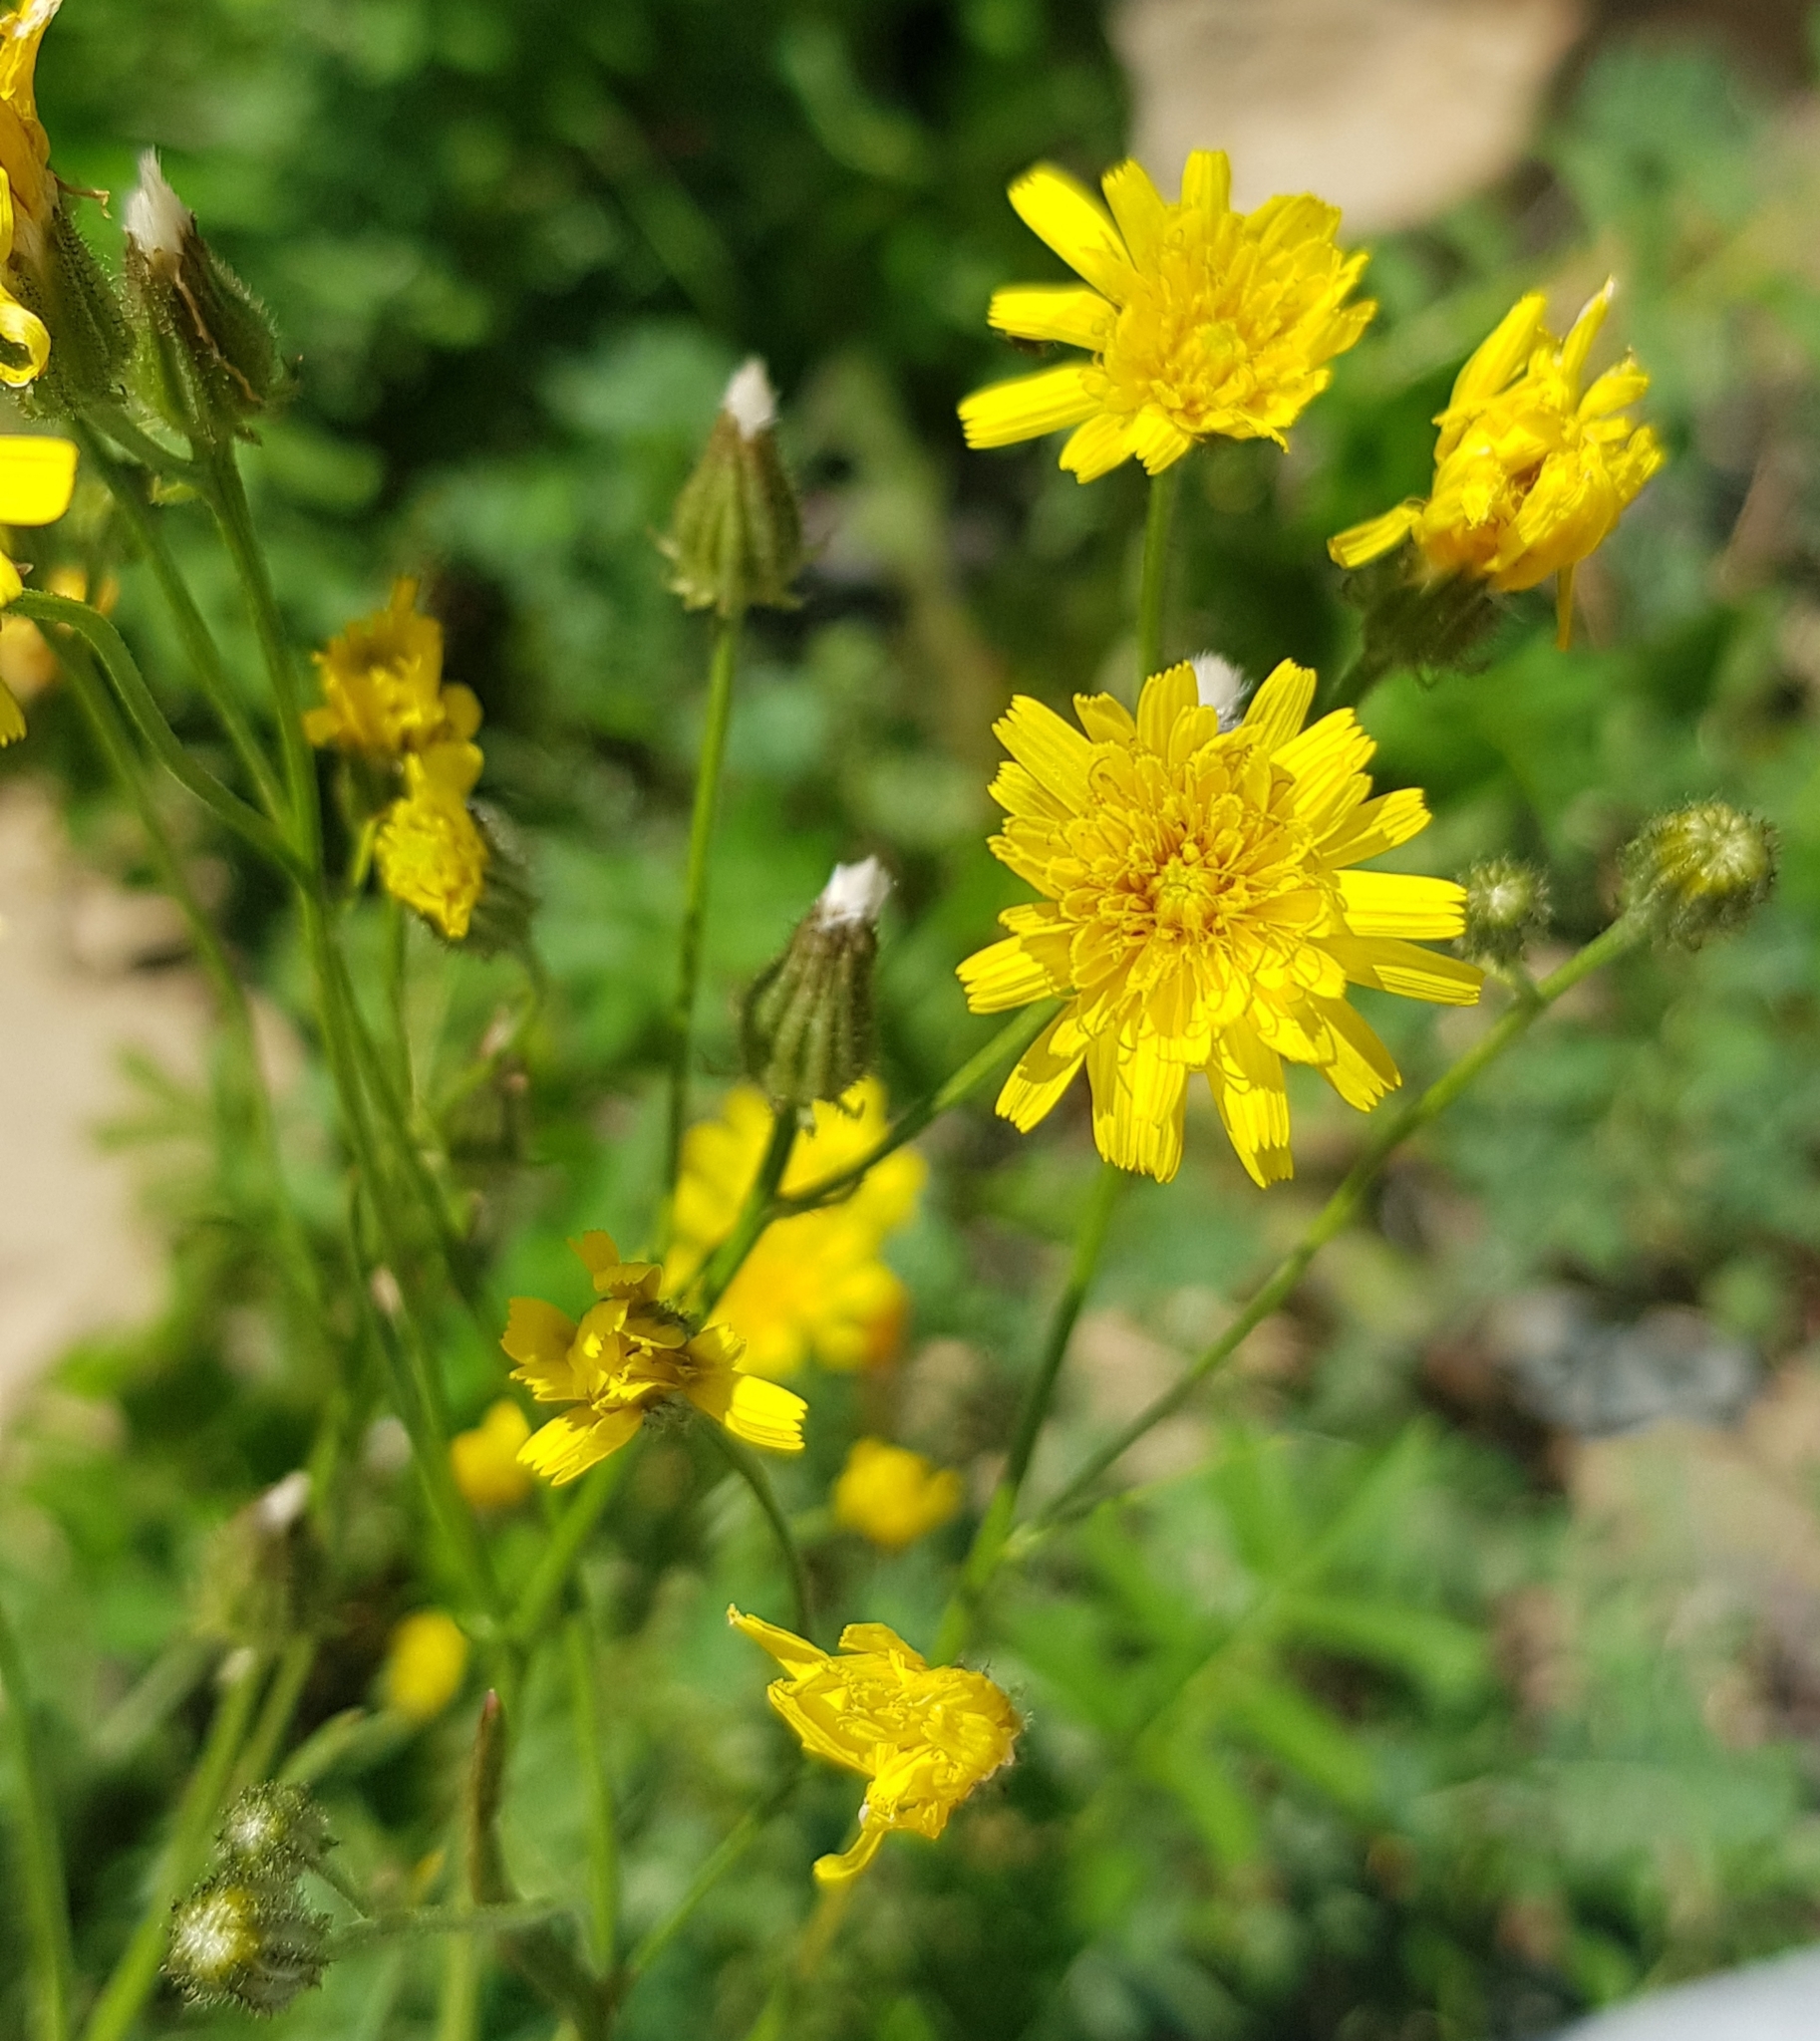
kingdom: Plantae
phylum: Tracheophyta
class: Magnoliopsida
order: Asterales
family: Asteraceae
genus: Crepis
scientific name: Crepis tectorum
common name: Narrow-leaved hawk's-beard
